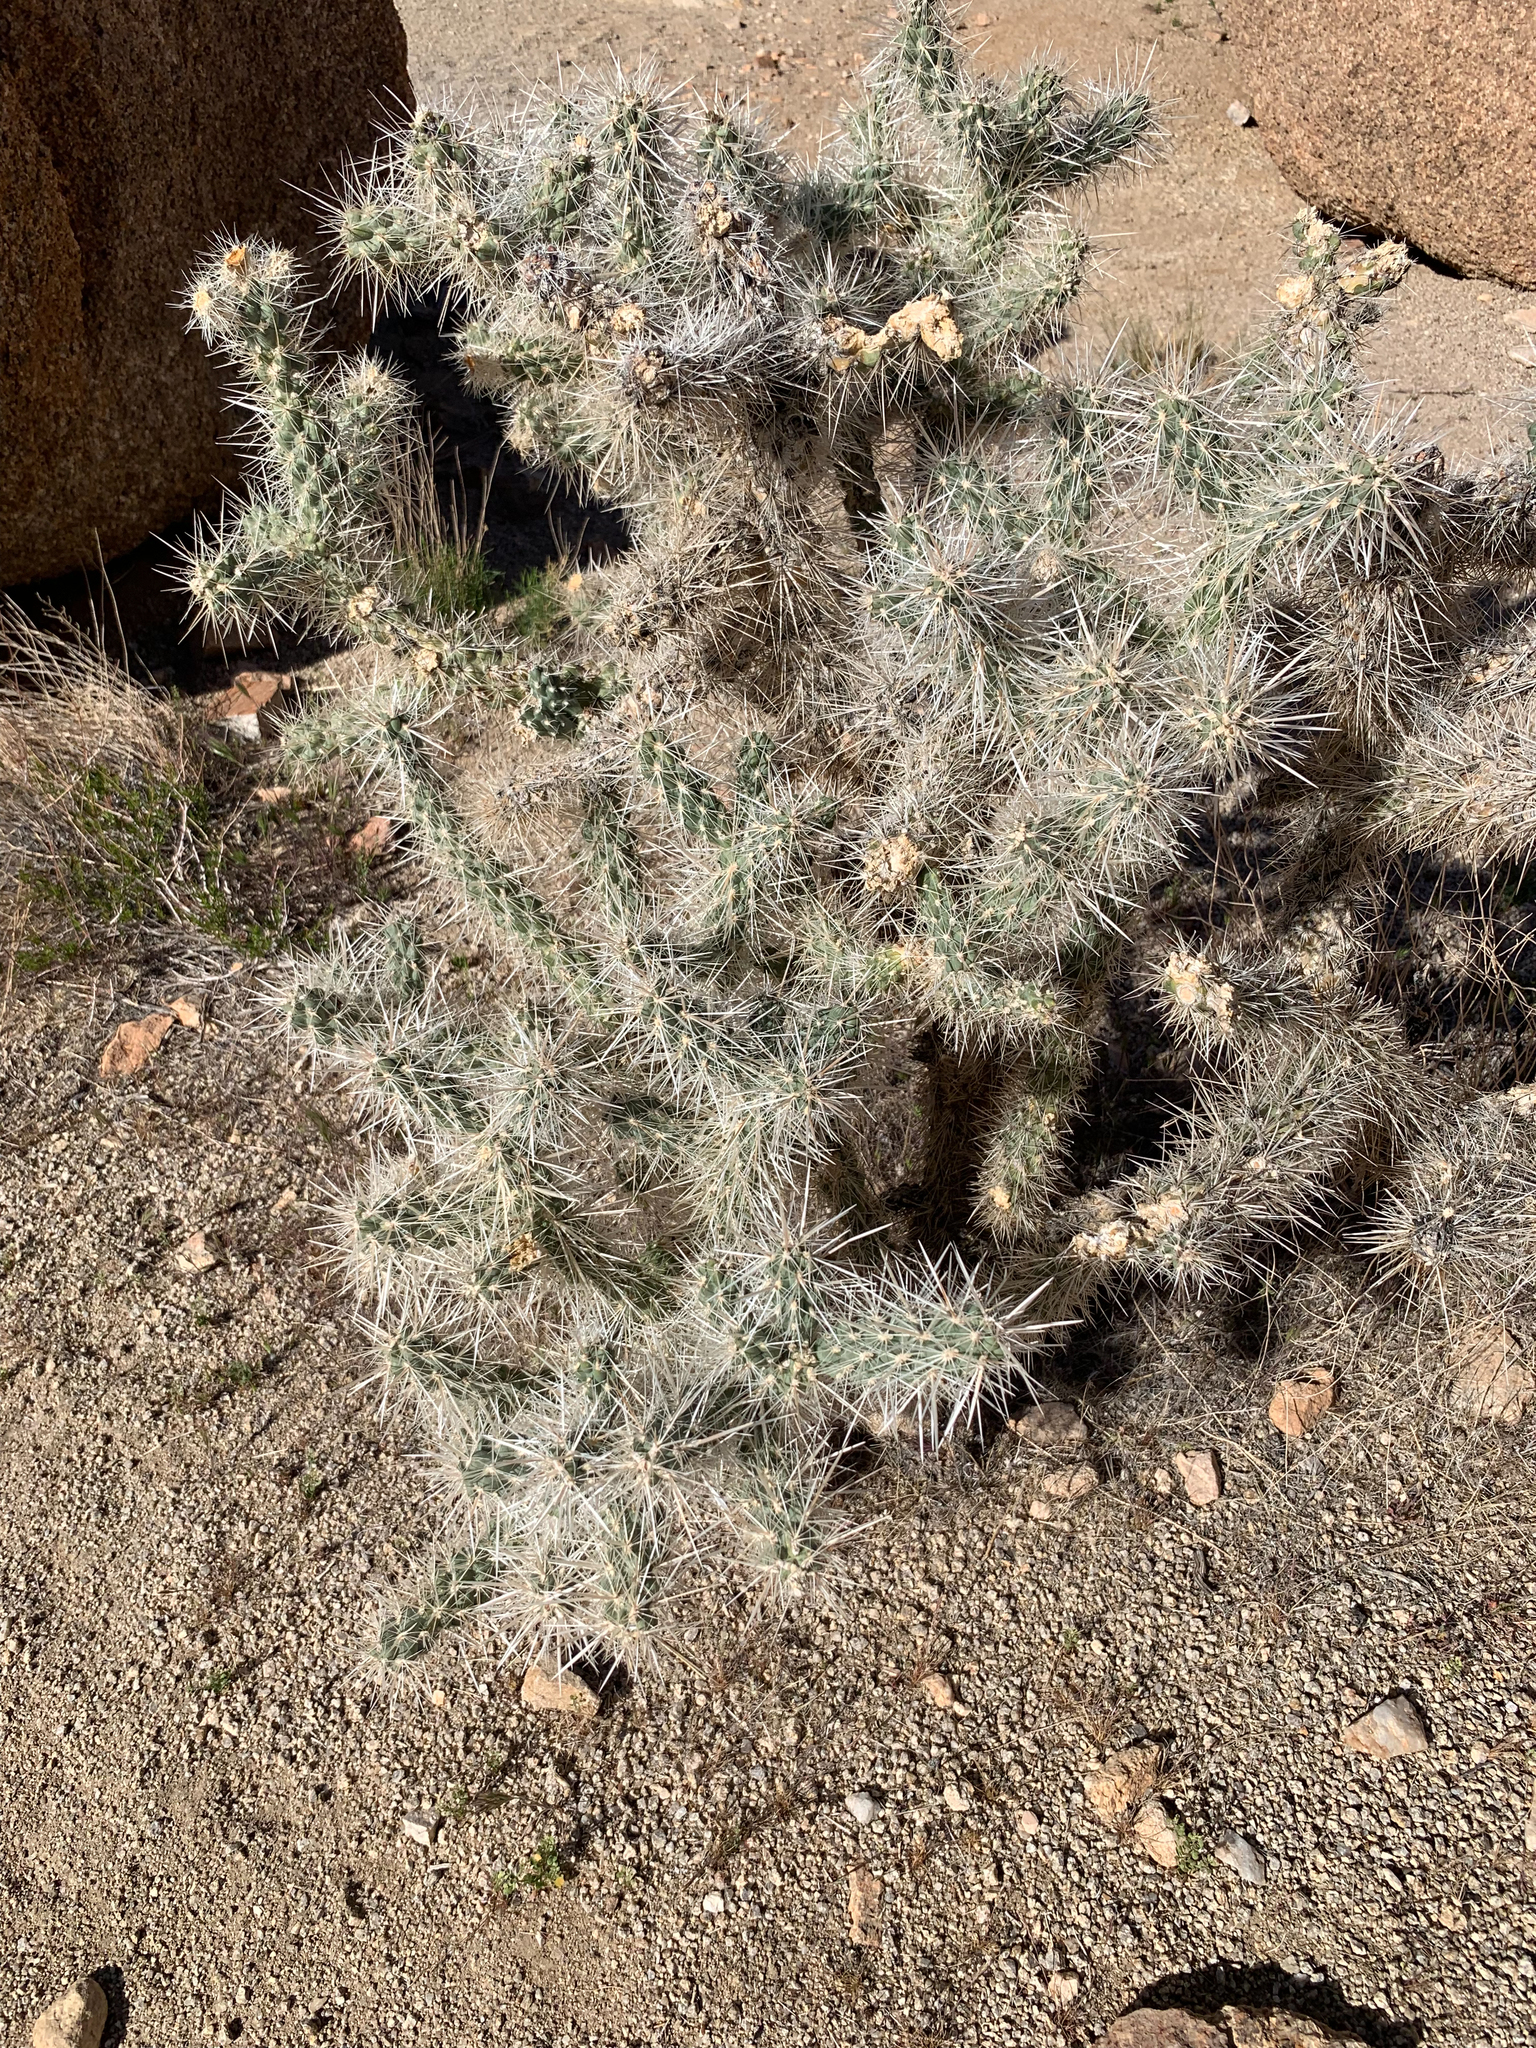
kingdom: Plantae
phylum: Tracheophyta
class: Magnoliopsida
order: Caryophyllales
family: Cactaceae
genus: Cylindropuntia
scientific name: Cylindropuntia echinocarpa
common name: Ground cholla
